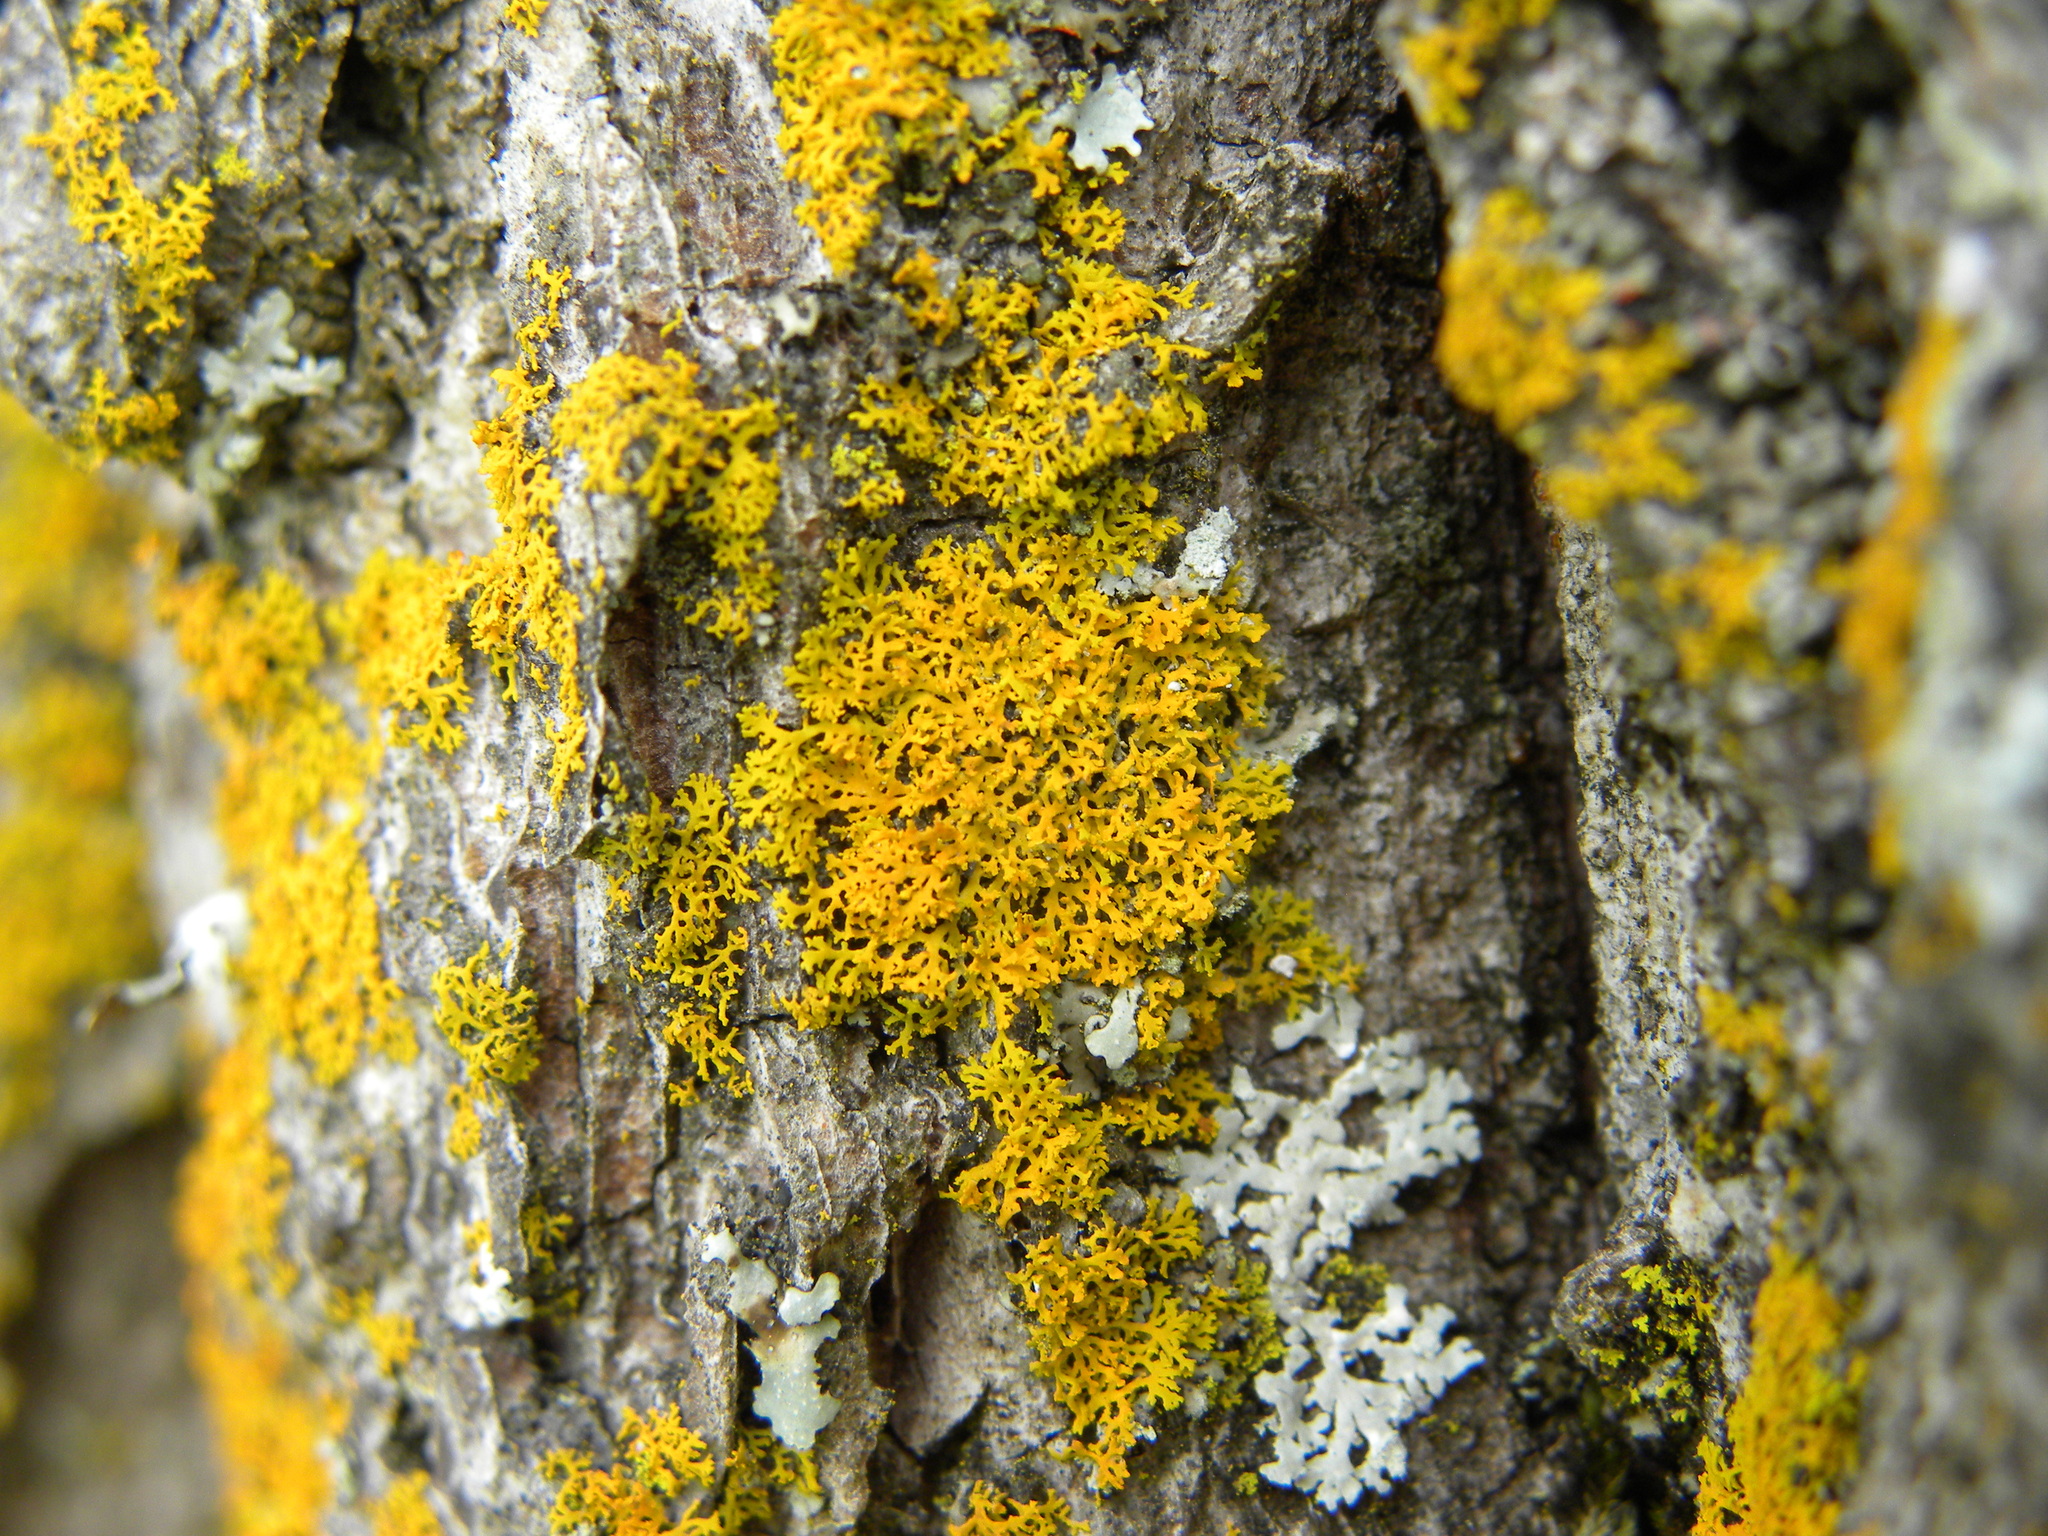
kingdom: Fungi
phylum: Ascomycota
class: Lecanoromycetes
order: Teloschistales
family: Teloschistaceae
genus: Gallowayella
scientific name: Gallowayella weberi
